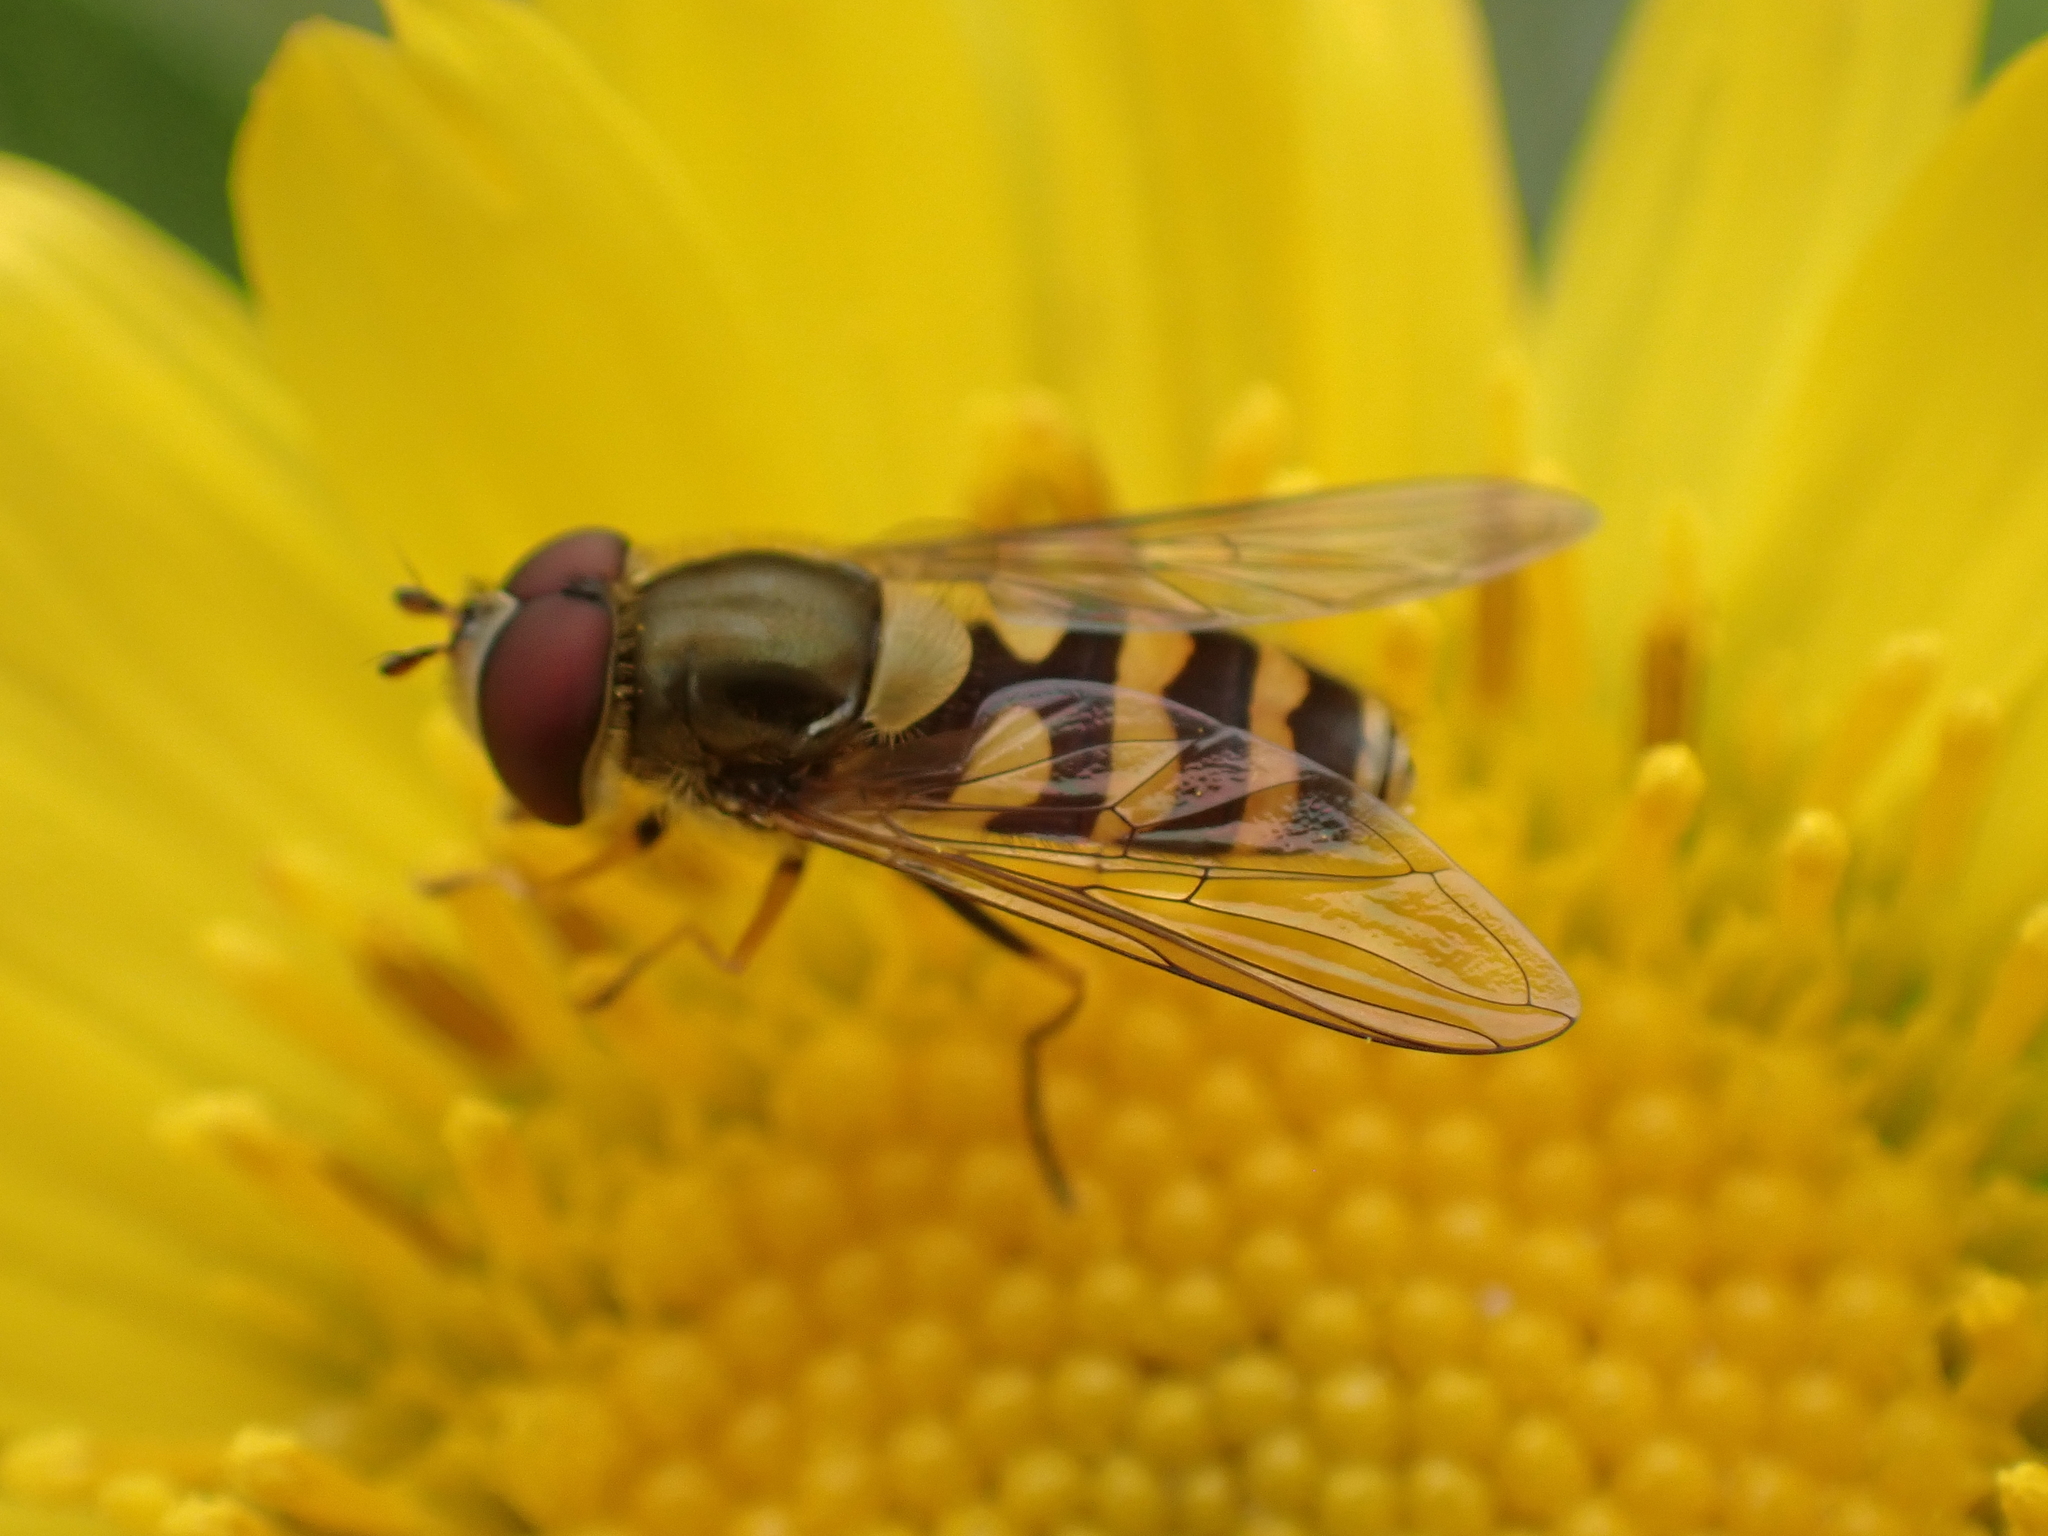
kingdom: Animalia
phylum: Arthropoda
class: Insecta
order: Diptera
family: Syrphidae
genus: Syrphus
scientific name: Syrphus
